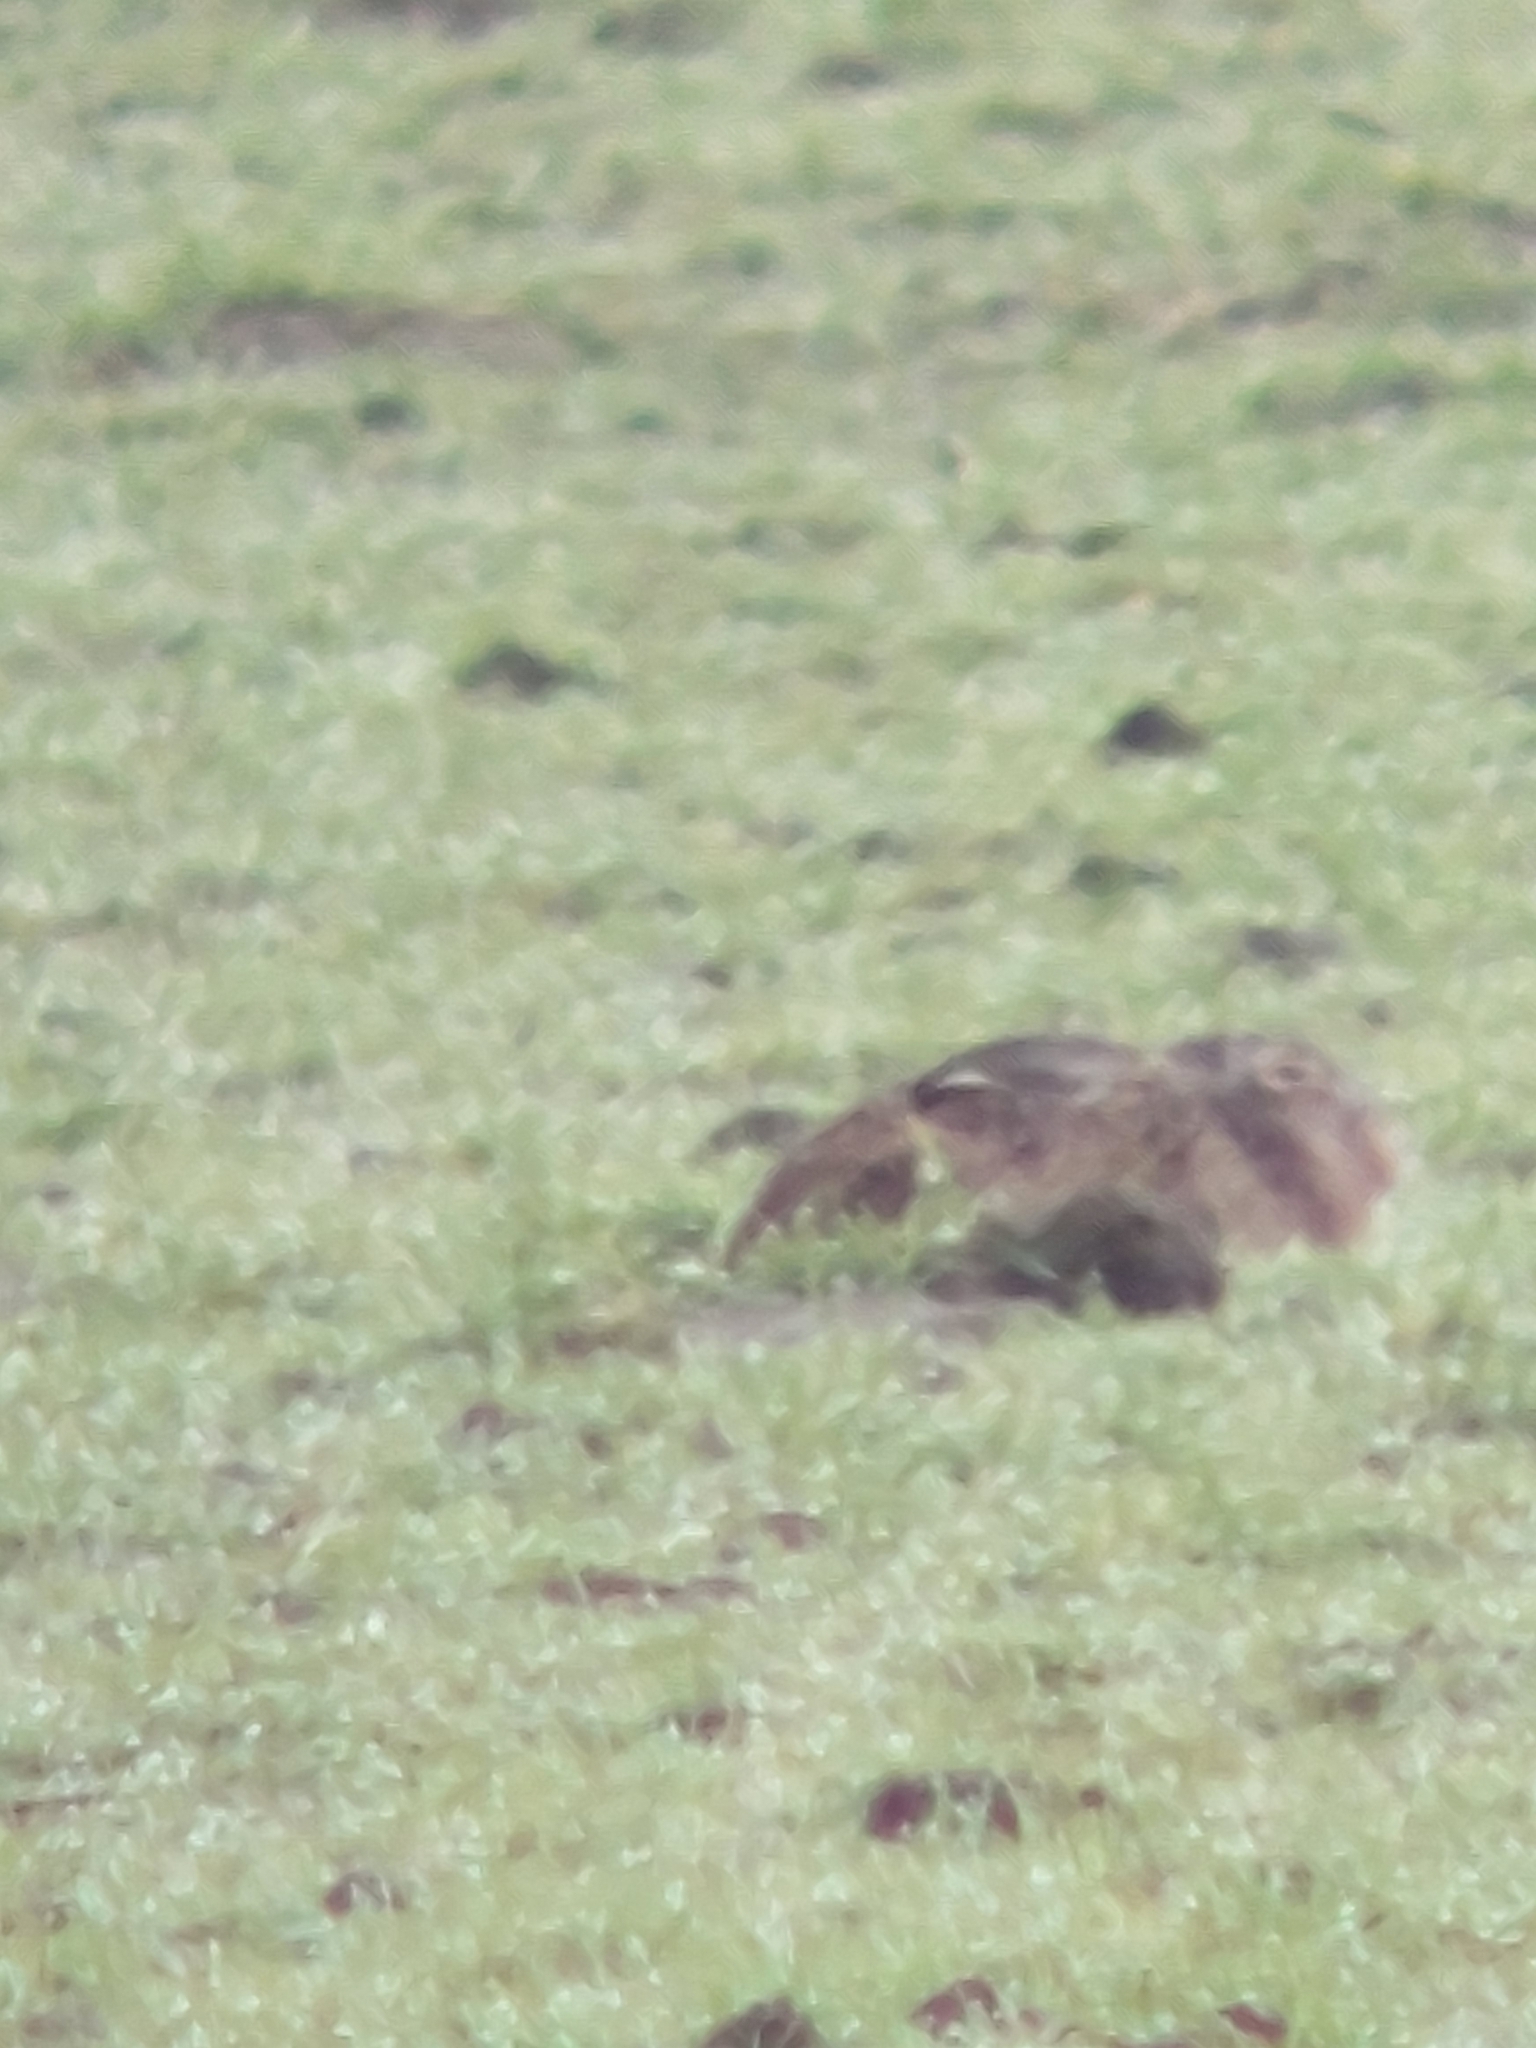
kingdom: Animalia
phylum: Chordata
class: Mammalia
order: Lagomorpha
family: Leporidae
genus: Lepus
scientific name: Lepus europaeus
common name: European hare
